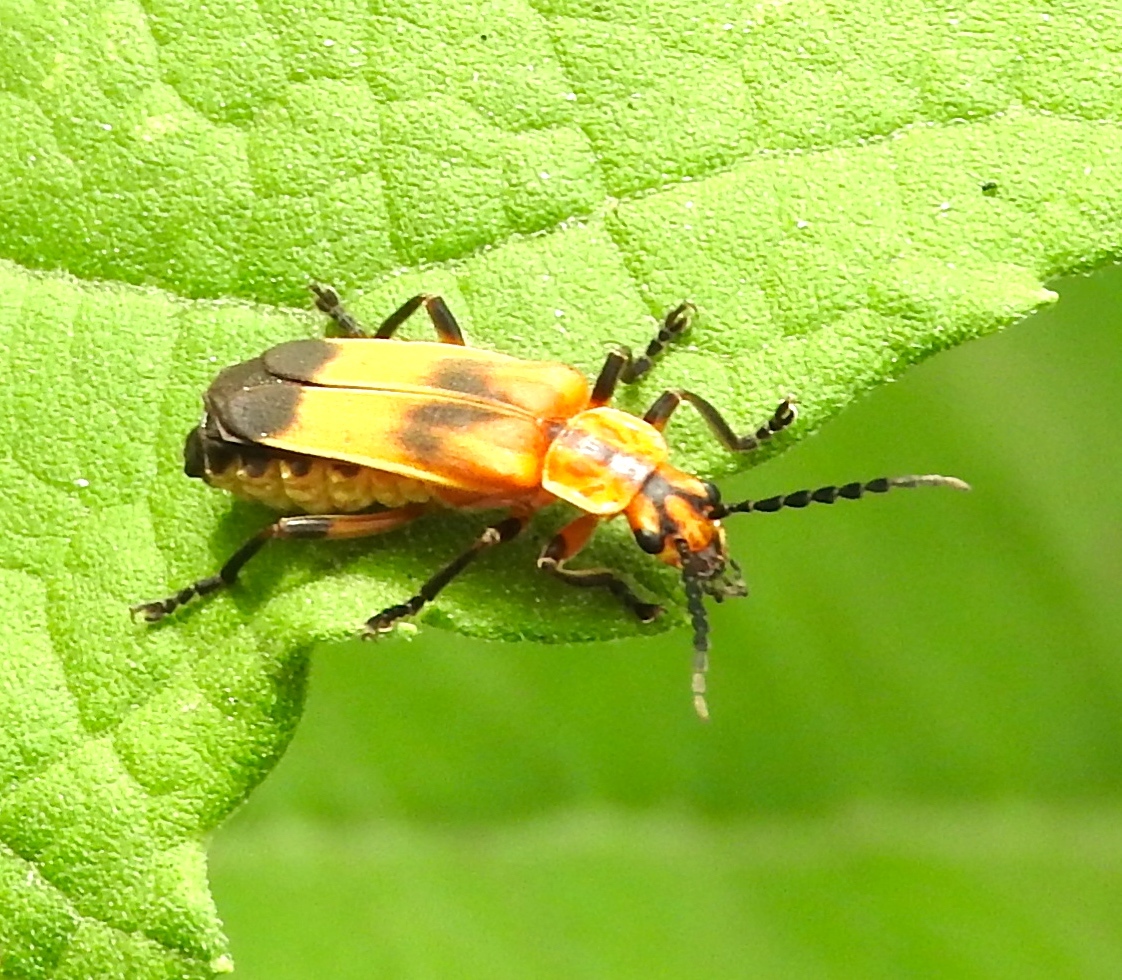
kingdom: Animalia
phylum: Arthropoda
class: Insecta
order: Coleoptera
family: Cantharidae
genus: Daiphron
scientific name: Daiphron proteum
